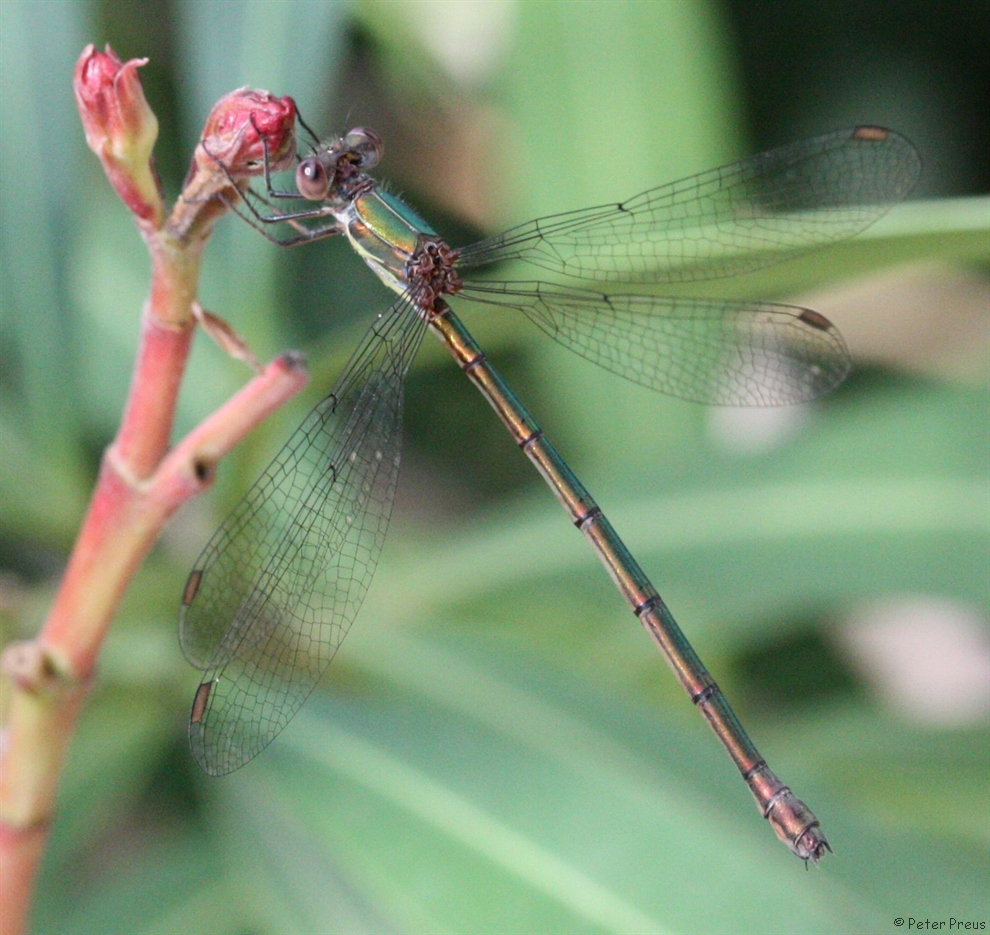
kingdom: Animalia
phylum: Arthropoda
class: Insecta
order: Odonata
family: Lestidae
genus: Chalcolestes
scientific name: Chalcolestes viridis
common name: Green emerald damselfly
